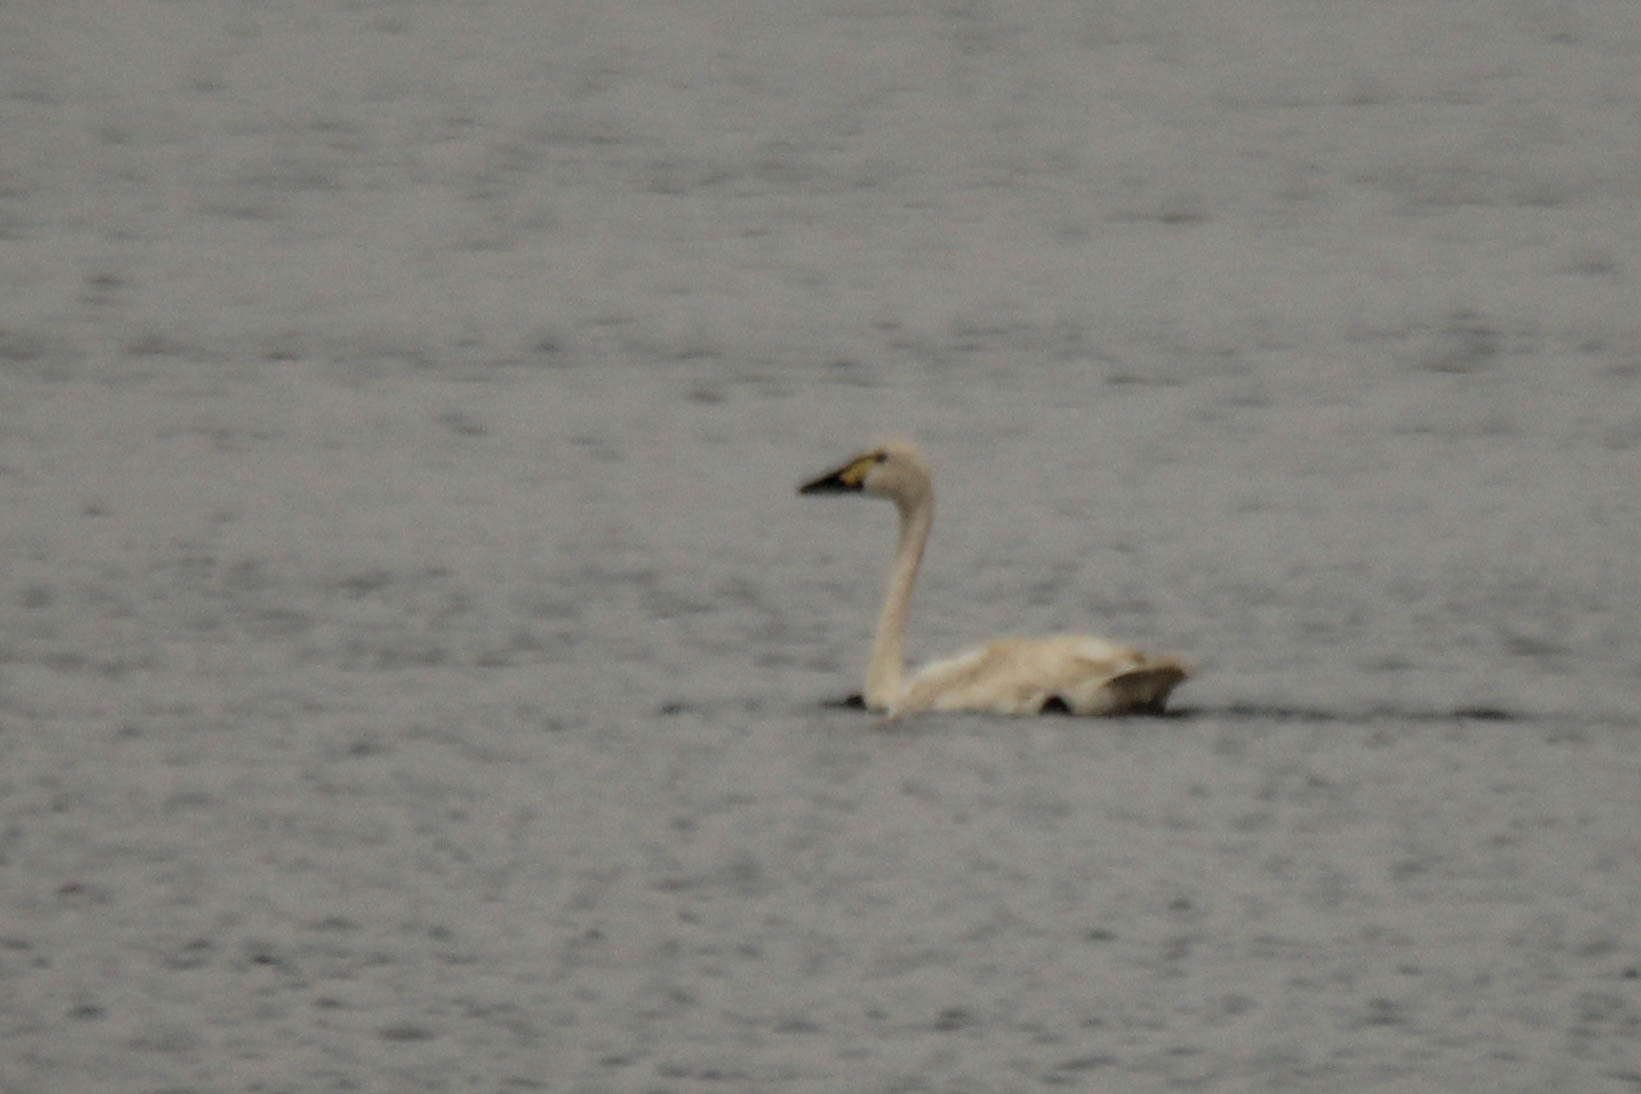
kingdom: Animalia
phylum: Chordata
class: Aves
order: Anseriformes
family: Anatidae
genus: Cygnus
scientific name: Cygnus columbianus
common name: Tundra swan
